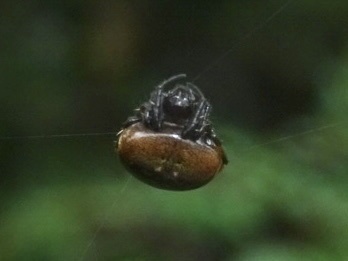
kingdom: Animalia
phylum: Arthropoda
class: Arachnida
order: Araneae
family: Araneidae
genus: Eriovixia
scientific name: Eriovixia hainanensis
